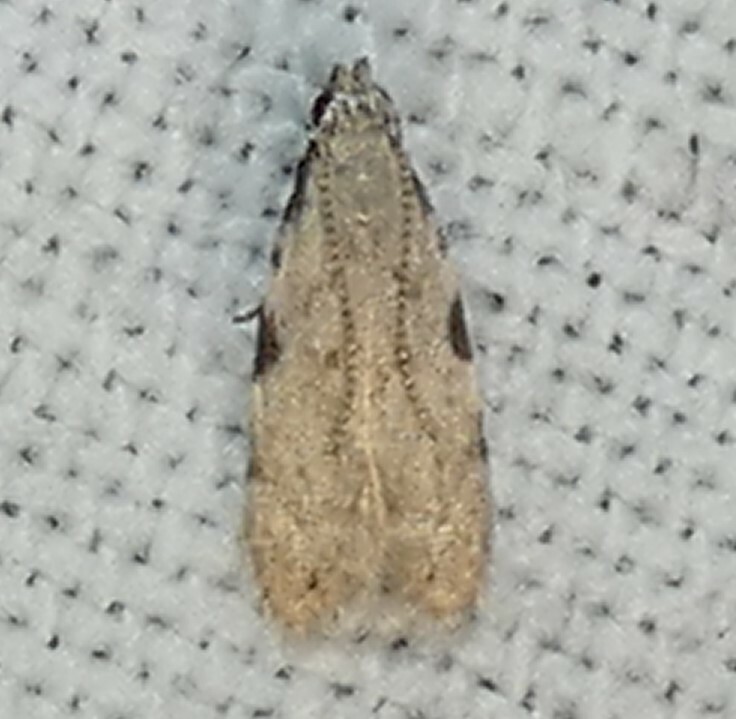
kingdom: Animalia
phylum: Arthropoda
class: Insecta
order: Lepidoptera
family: Autostichidae
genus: Taygete
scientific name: Taygete gallaegenitella
